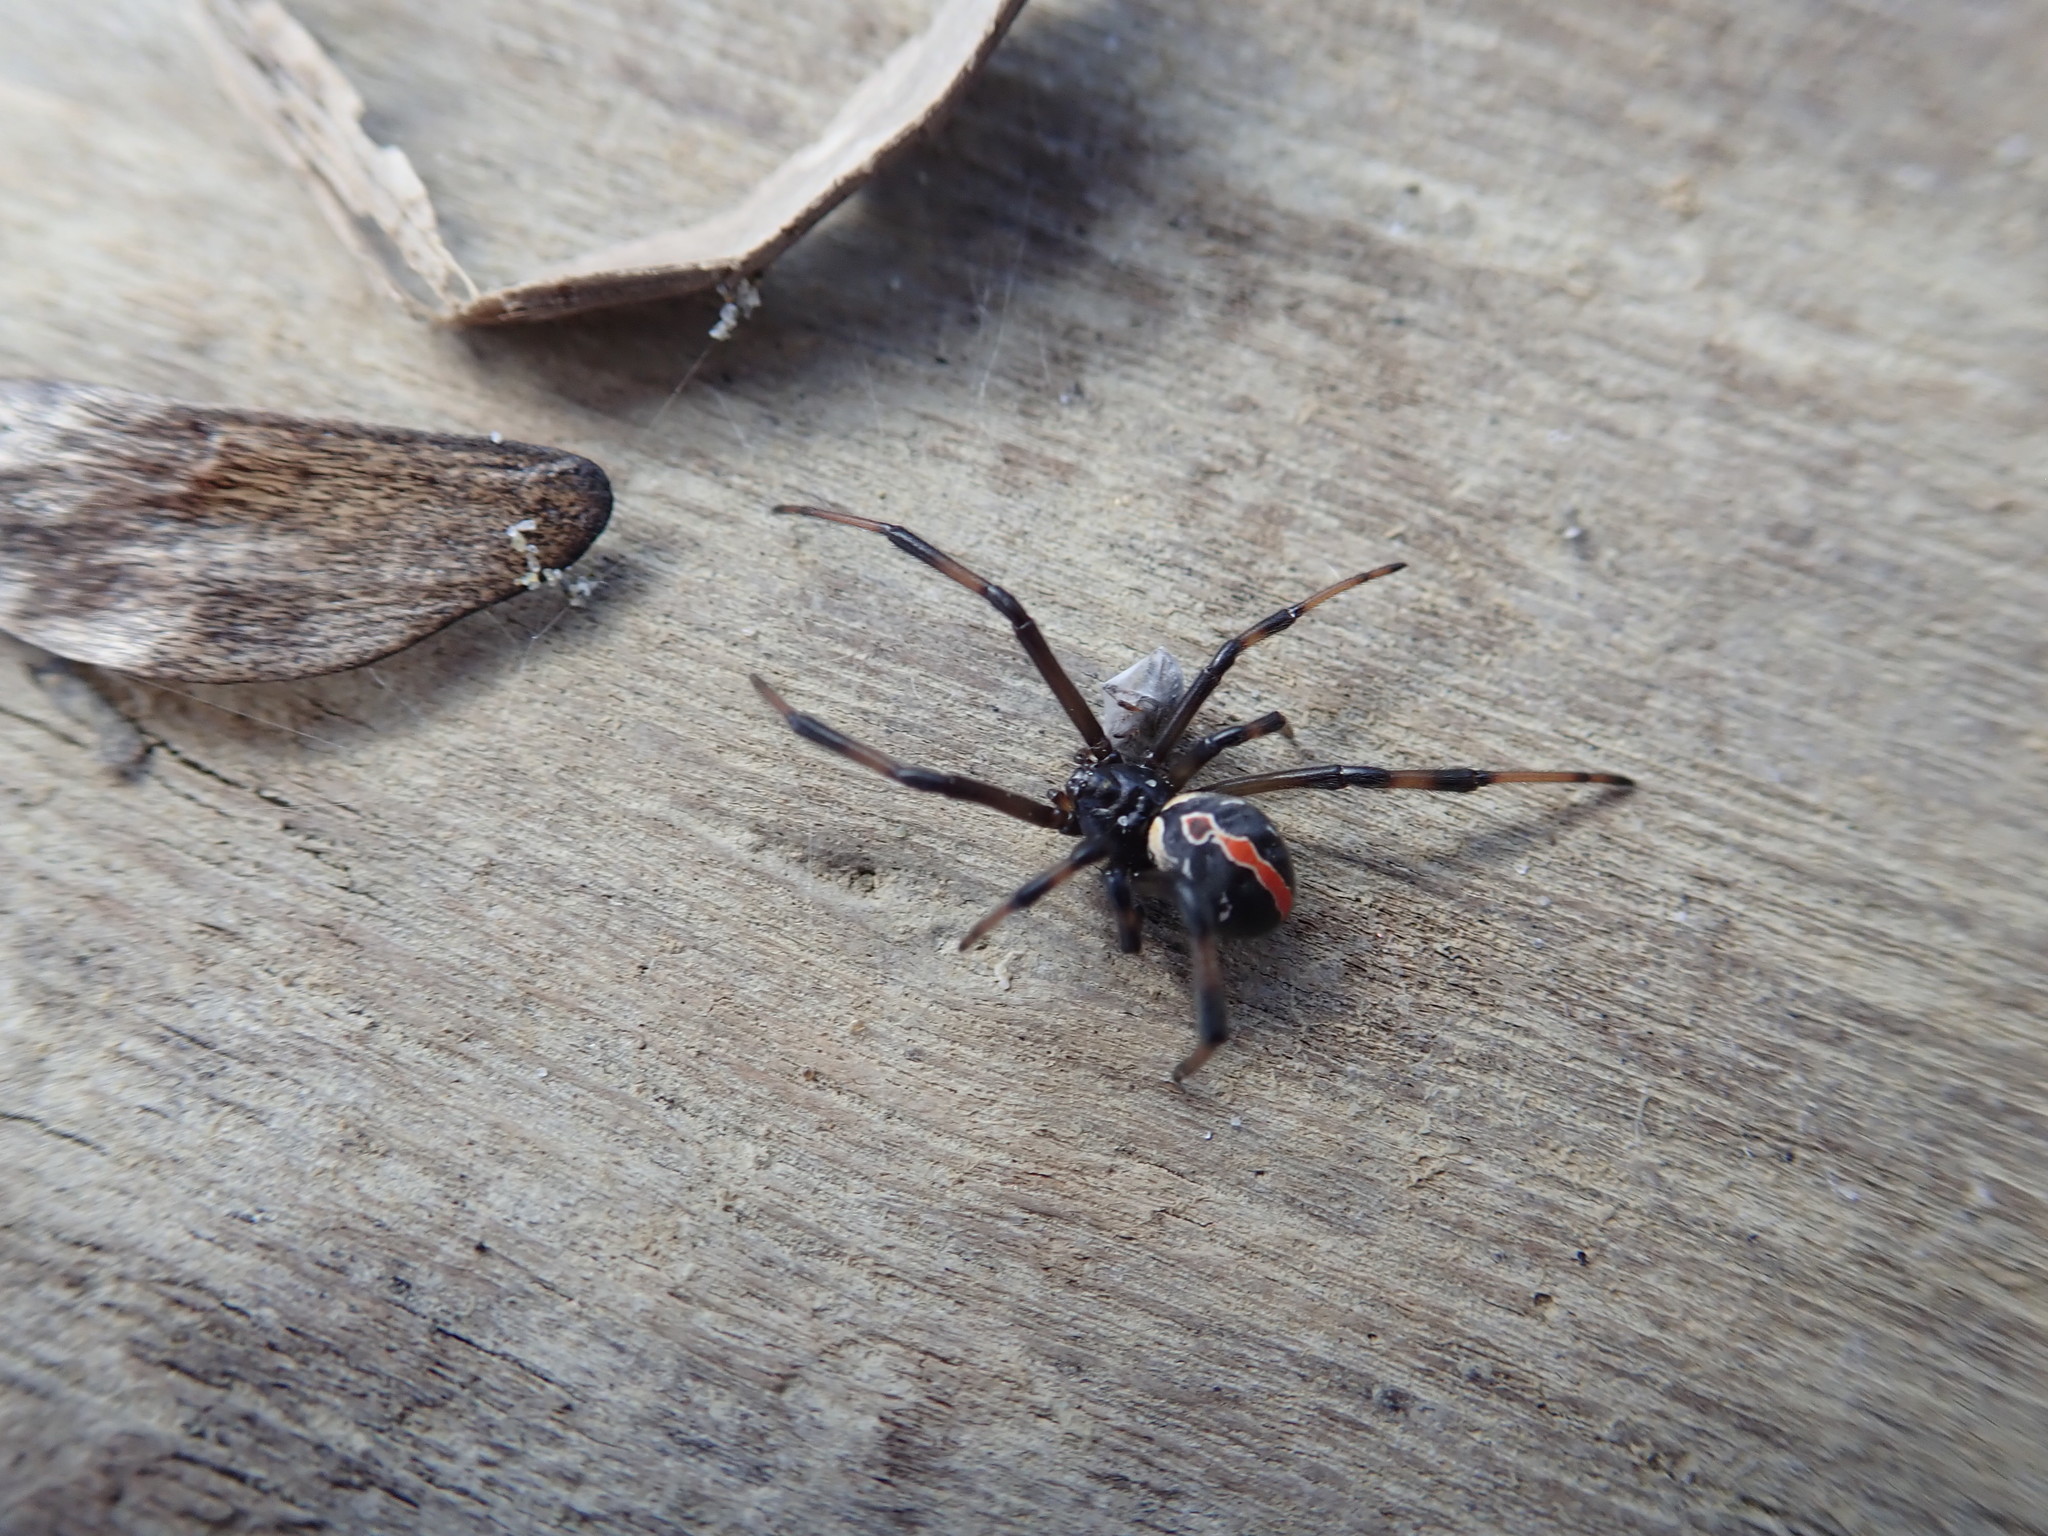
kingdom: Animalia
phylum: Arthropoda
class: Arachnida
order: Araneae
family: Theridiidae
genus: Latrodectus
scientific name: Latrodectus katipo
